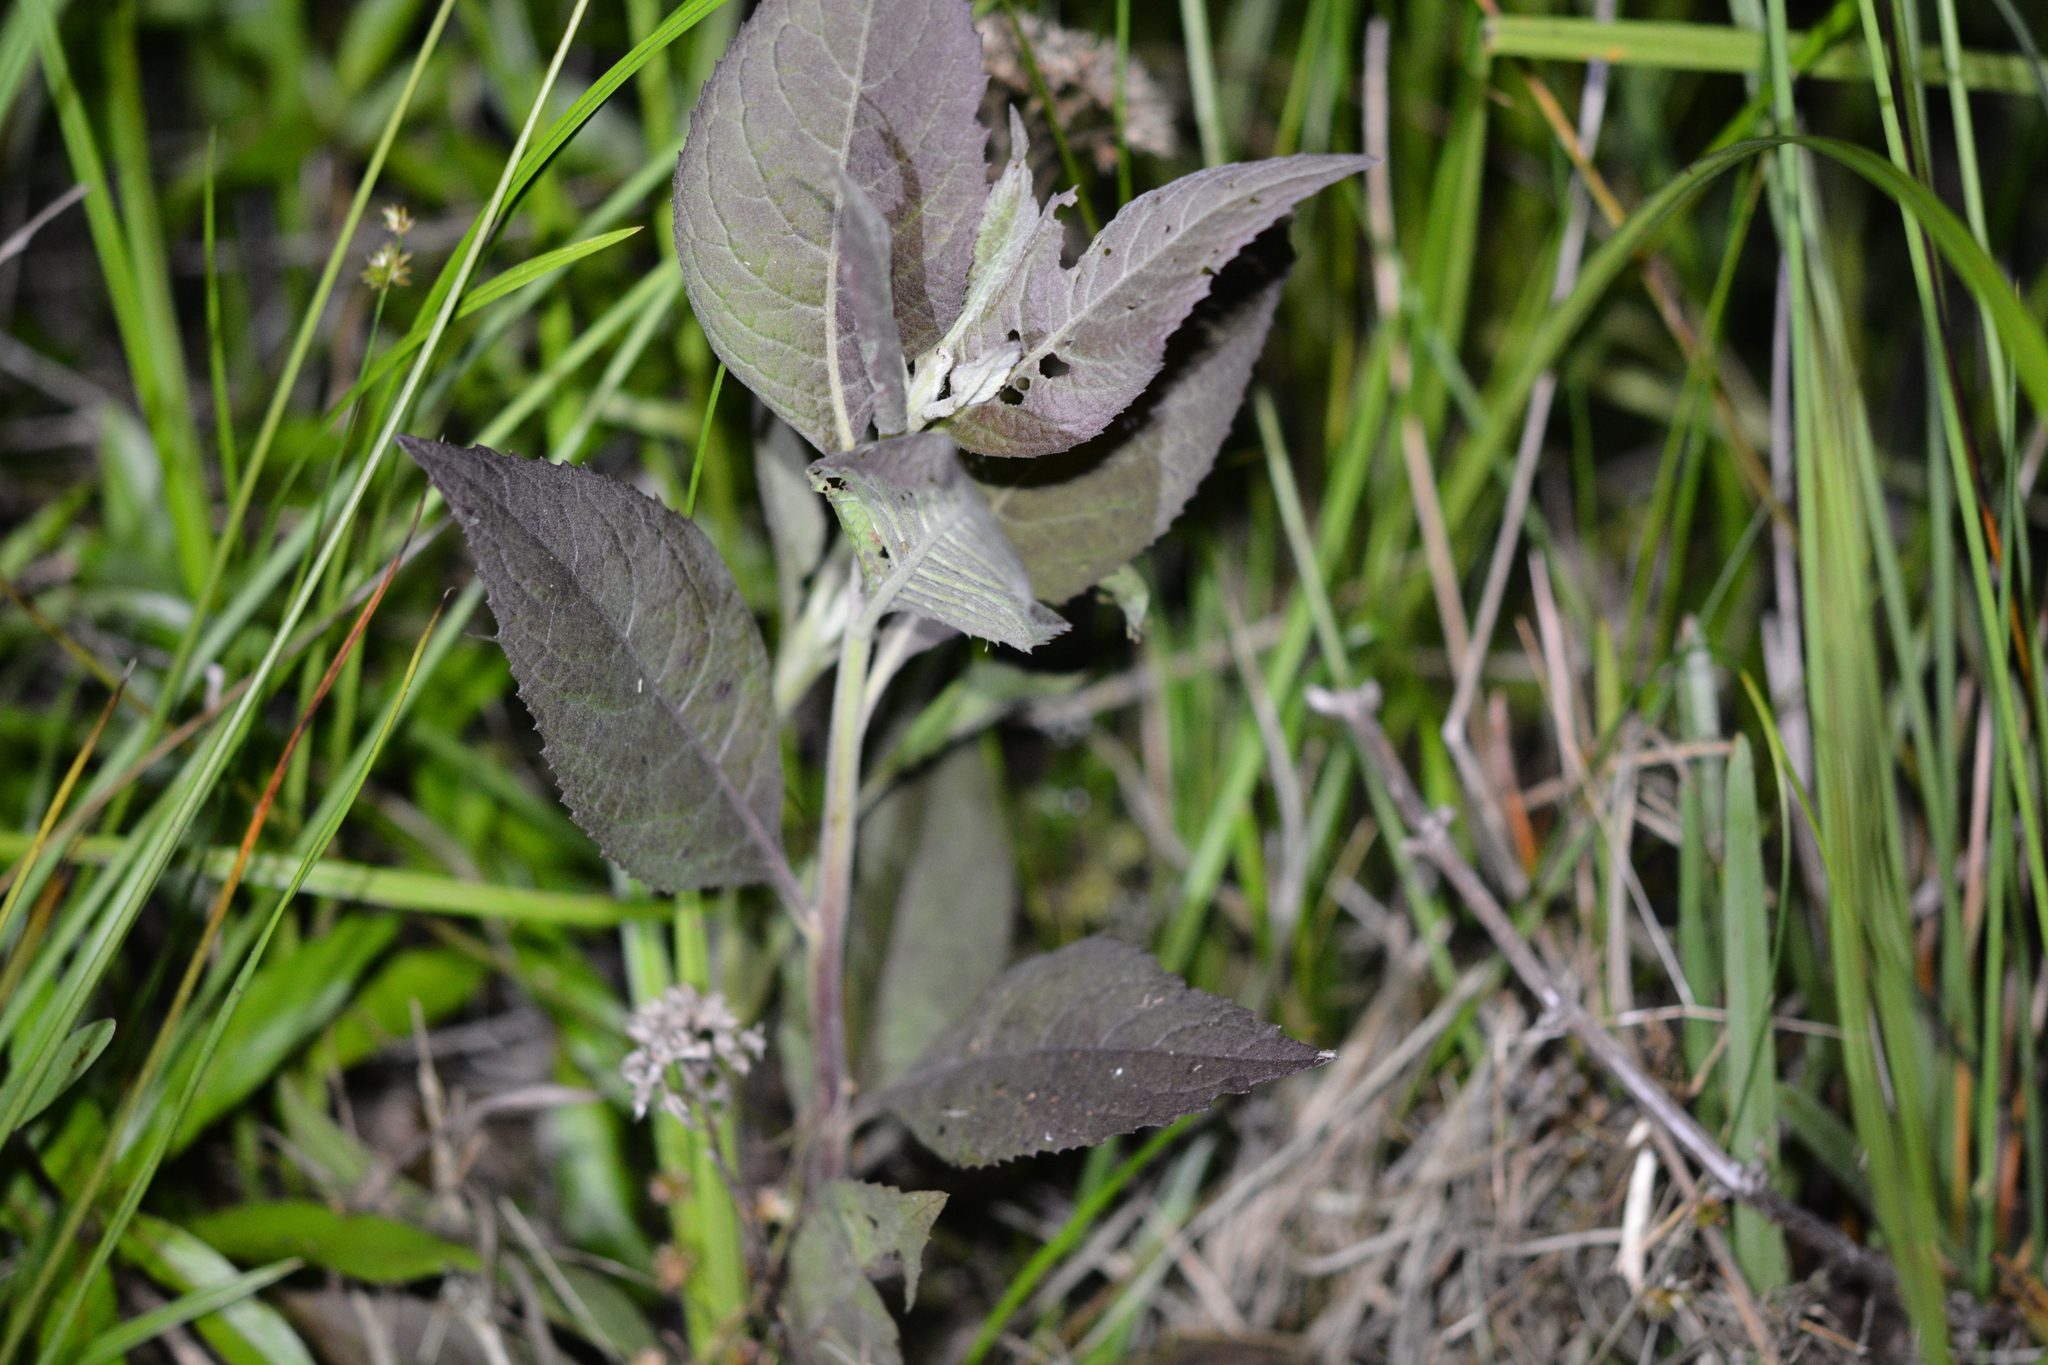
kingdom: Plantae
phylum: Tracheophyta
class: Magnoliopsida
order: Asterales
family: Asteraceae
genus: Pluchea
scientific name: Pluchea camphorata
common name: Camphor pluchea
